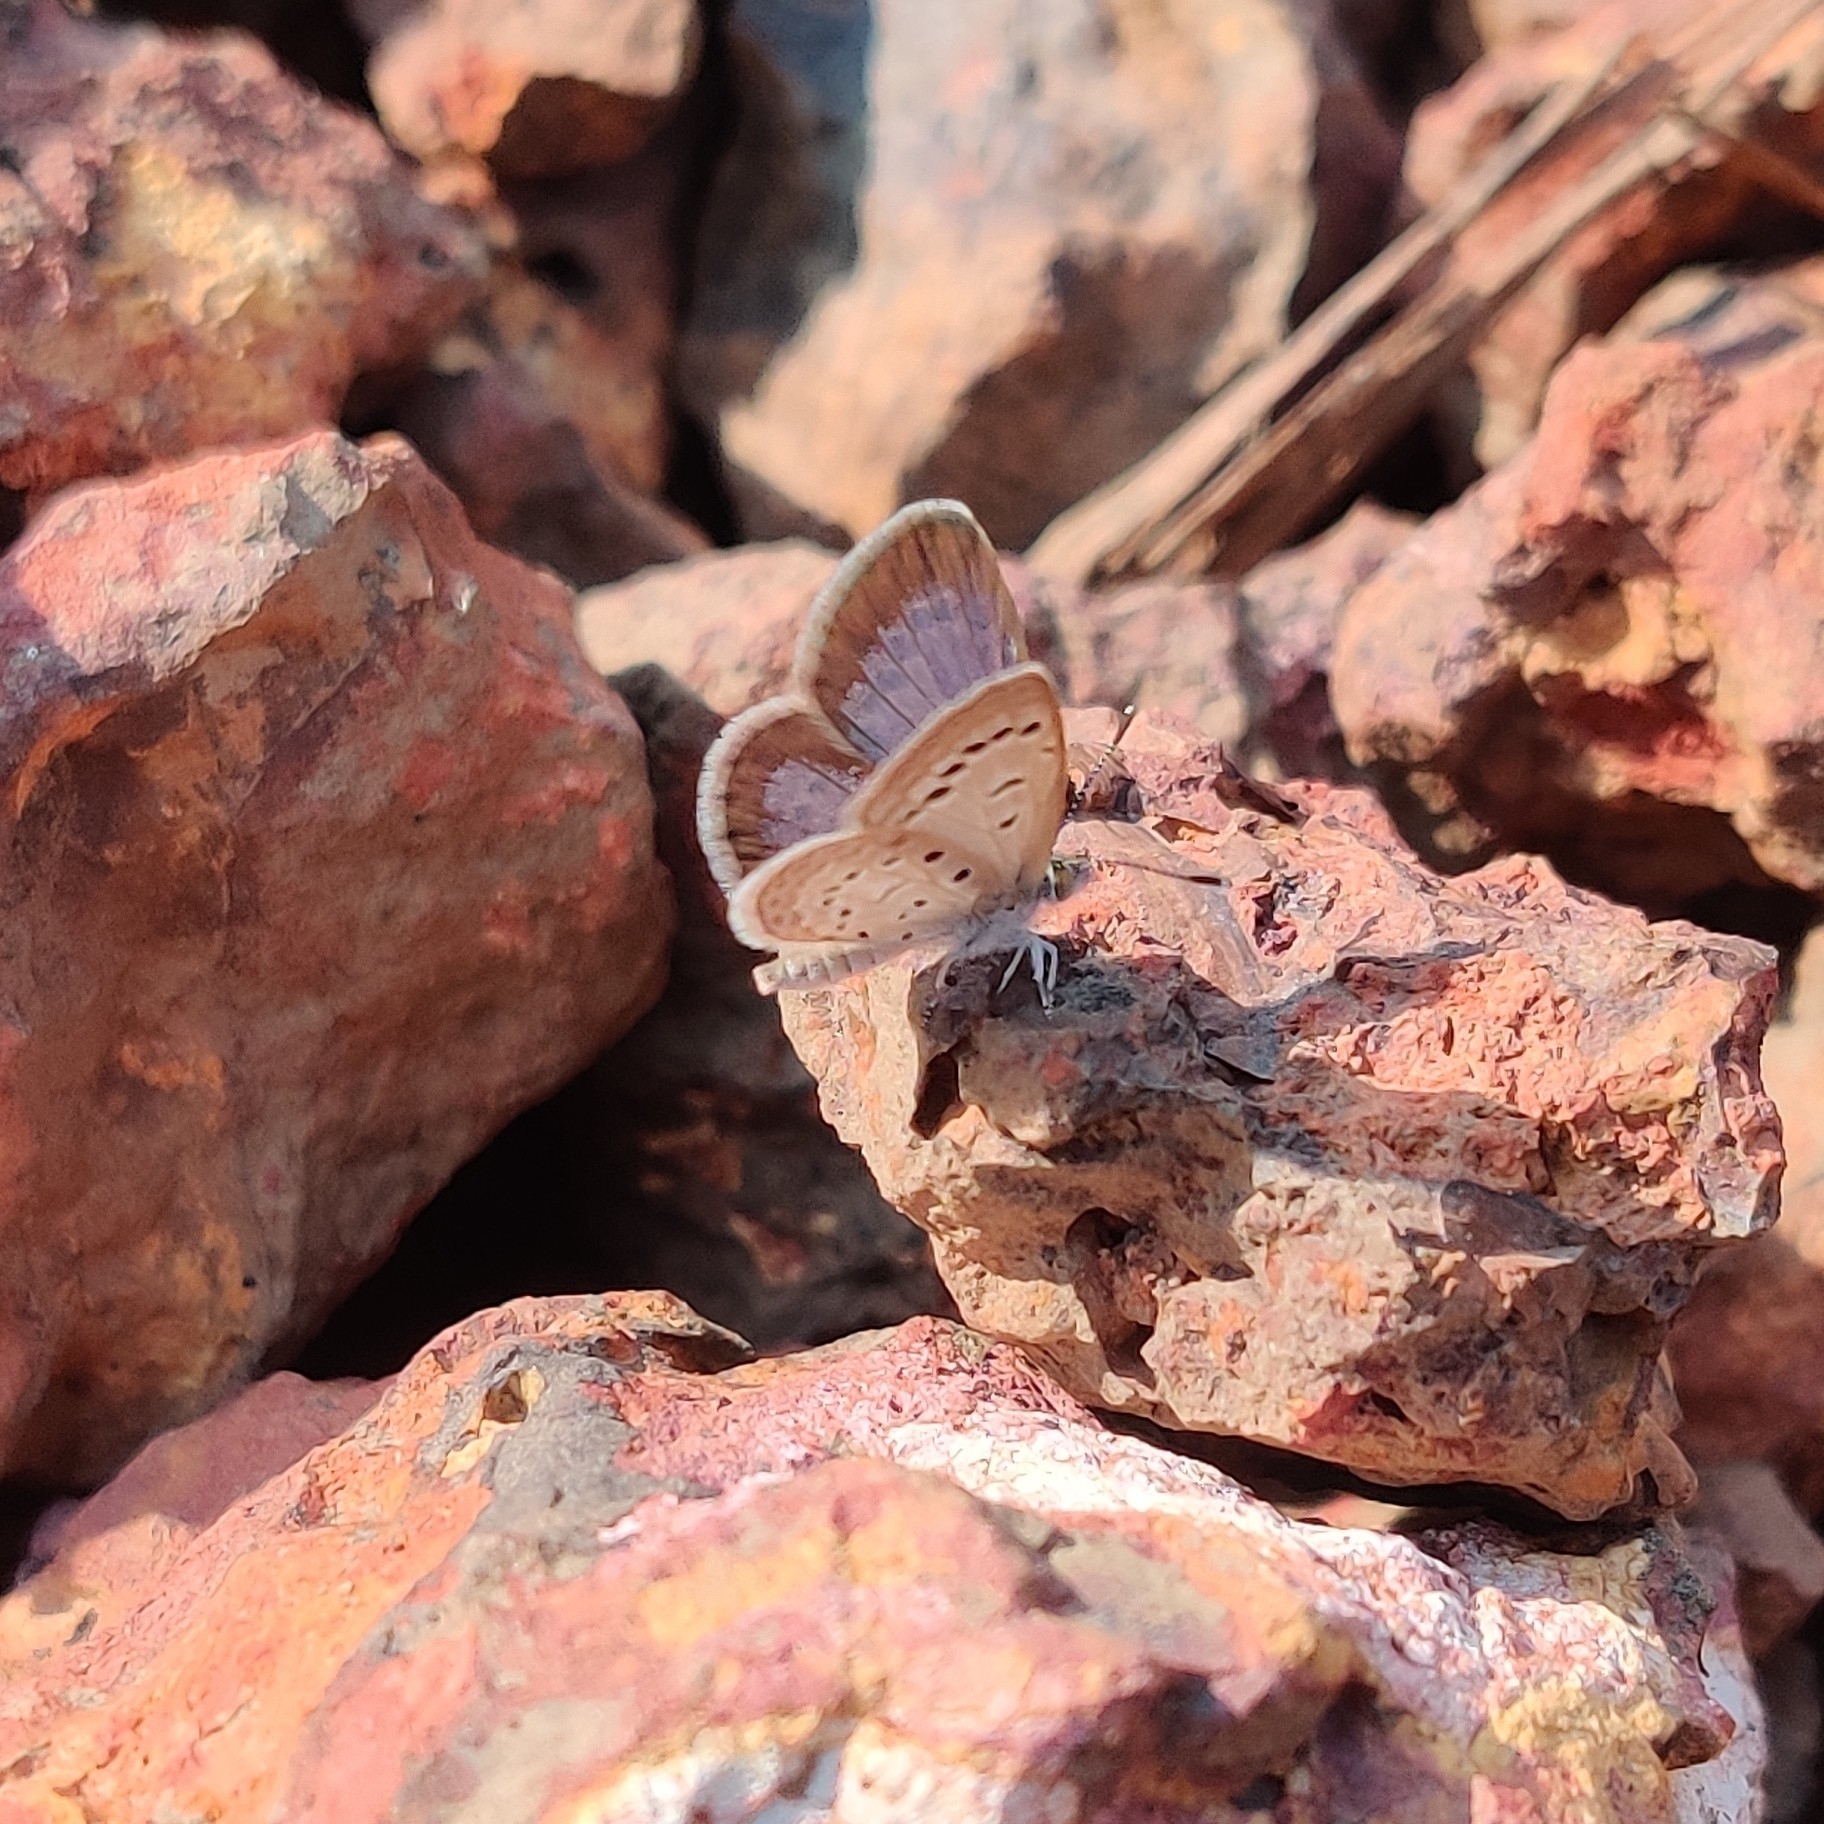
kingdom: Animalia
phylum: Arthropoda
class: Insecta
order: Lepidoptera
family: Lycaenidae
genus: Zizeeria
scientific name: Zizeeria karsandra
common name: Dark grass blue
